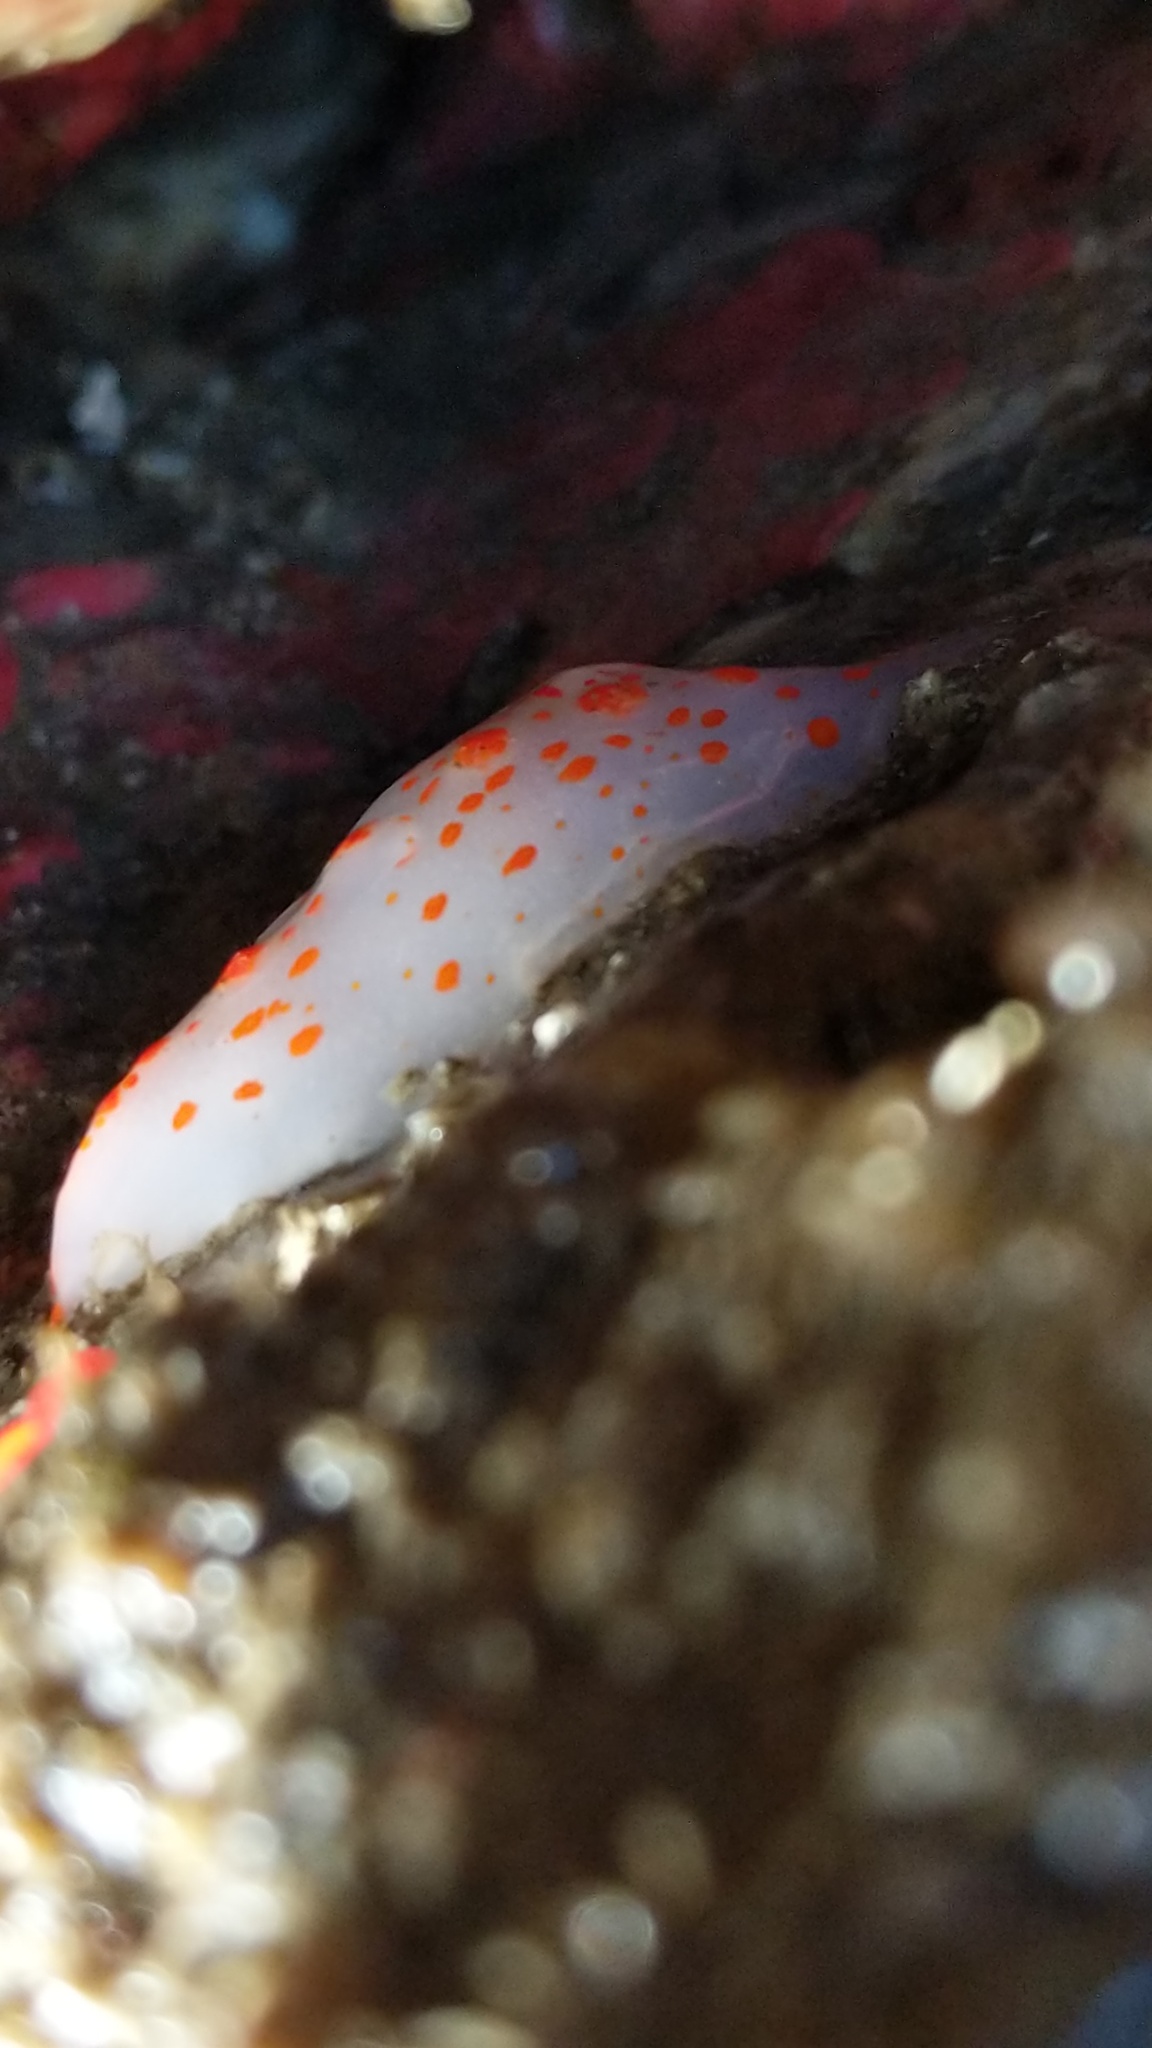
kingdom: Animalia
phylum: Mollusca
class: Gastropoda
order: Nudibranchia
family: Polyceridae
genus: Triopha
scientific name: Triopha catalinae
